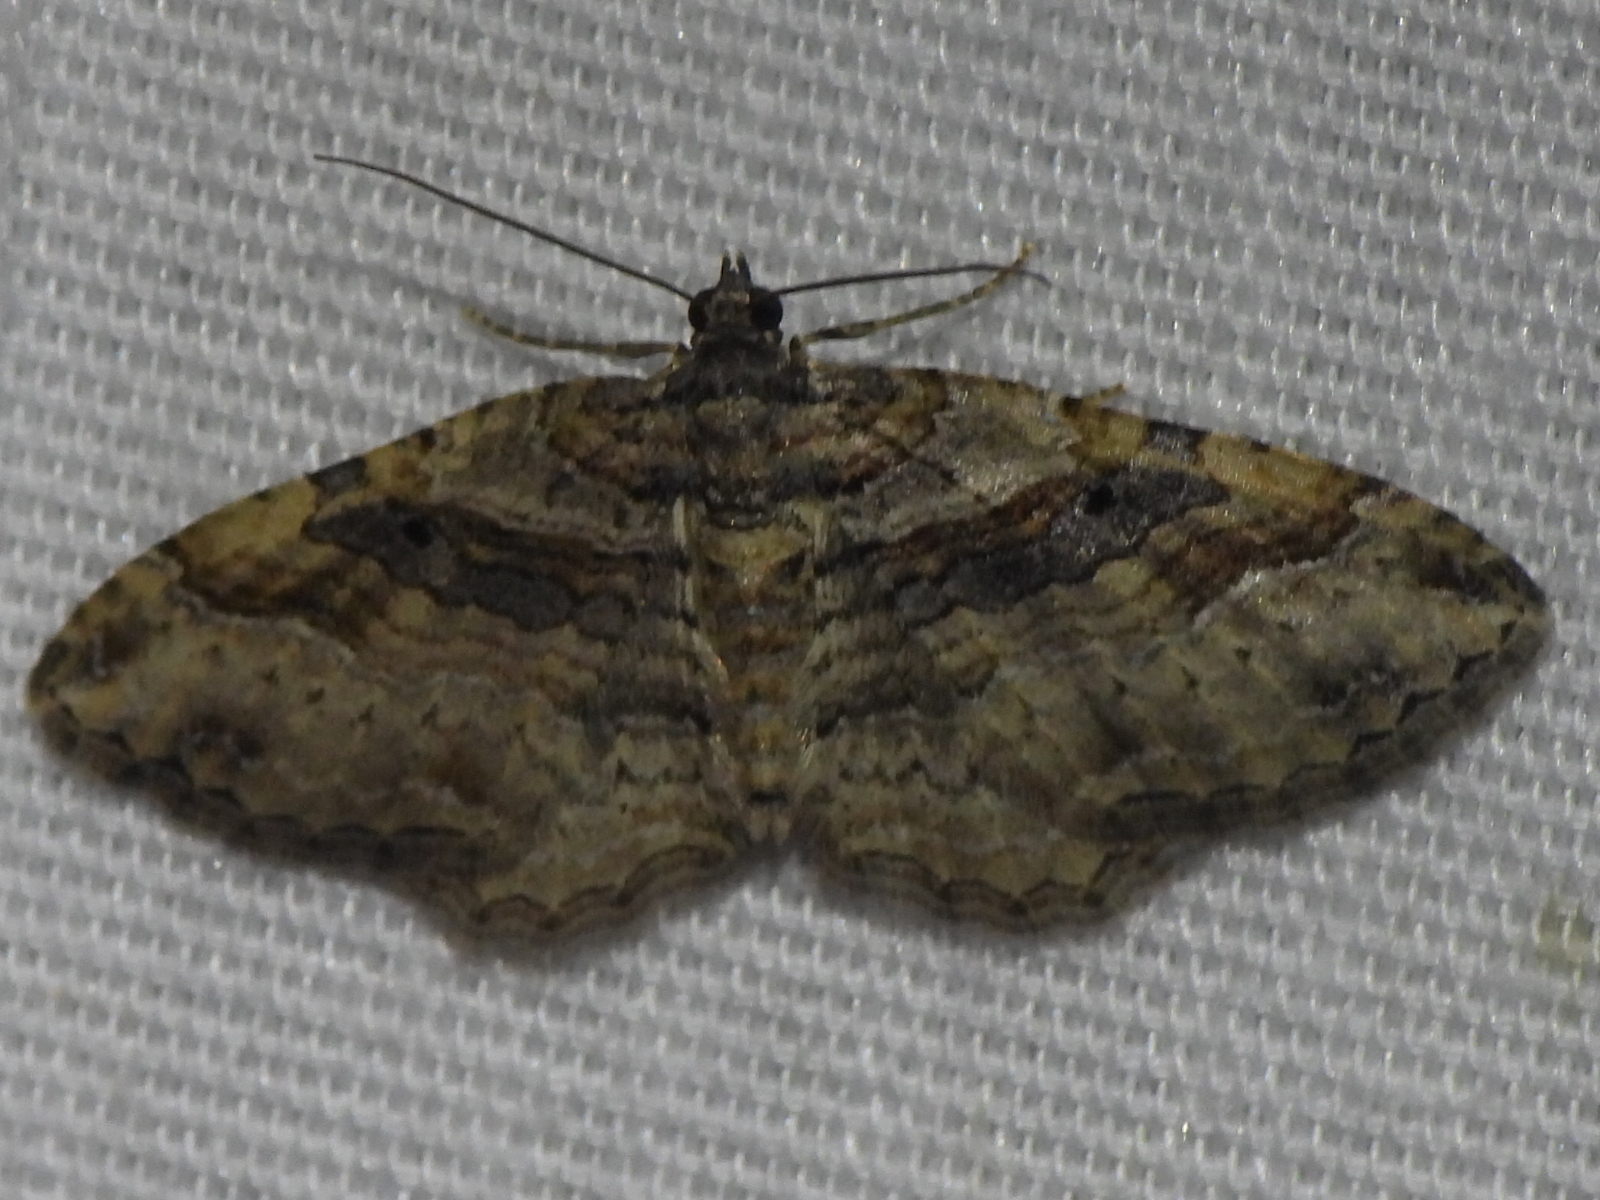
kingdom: Animalia
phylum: Arthropoda
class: Insecta
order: Lepidoptera
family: Geometridae
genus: Costaconvexa
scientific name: Costaconvexa centrostrigaria
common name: Bent-line carpet
